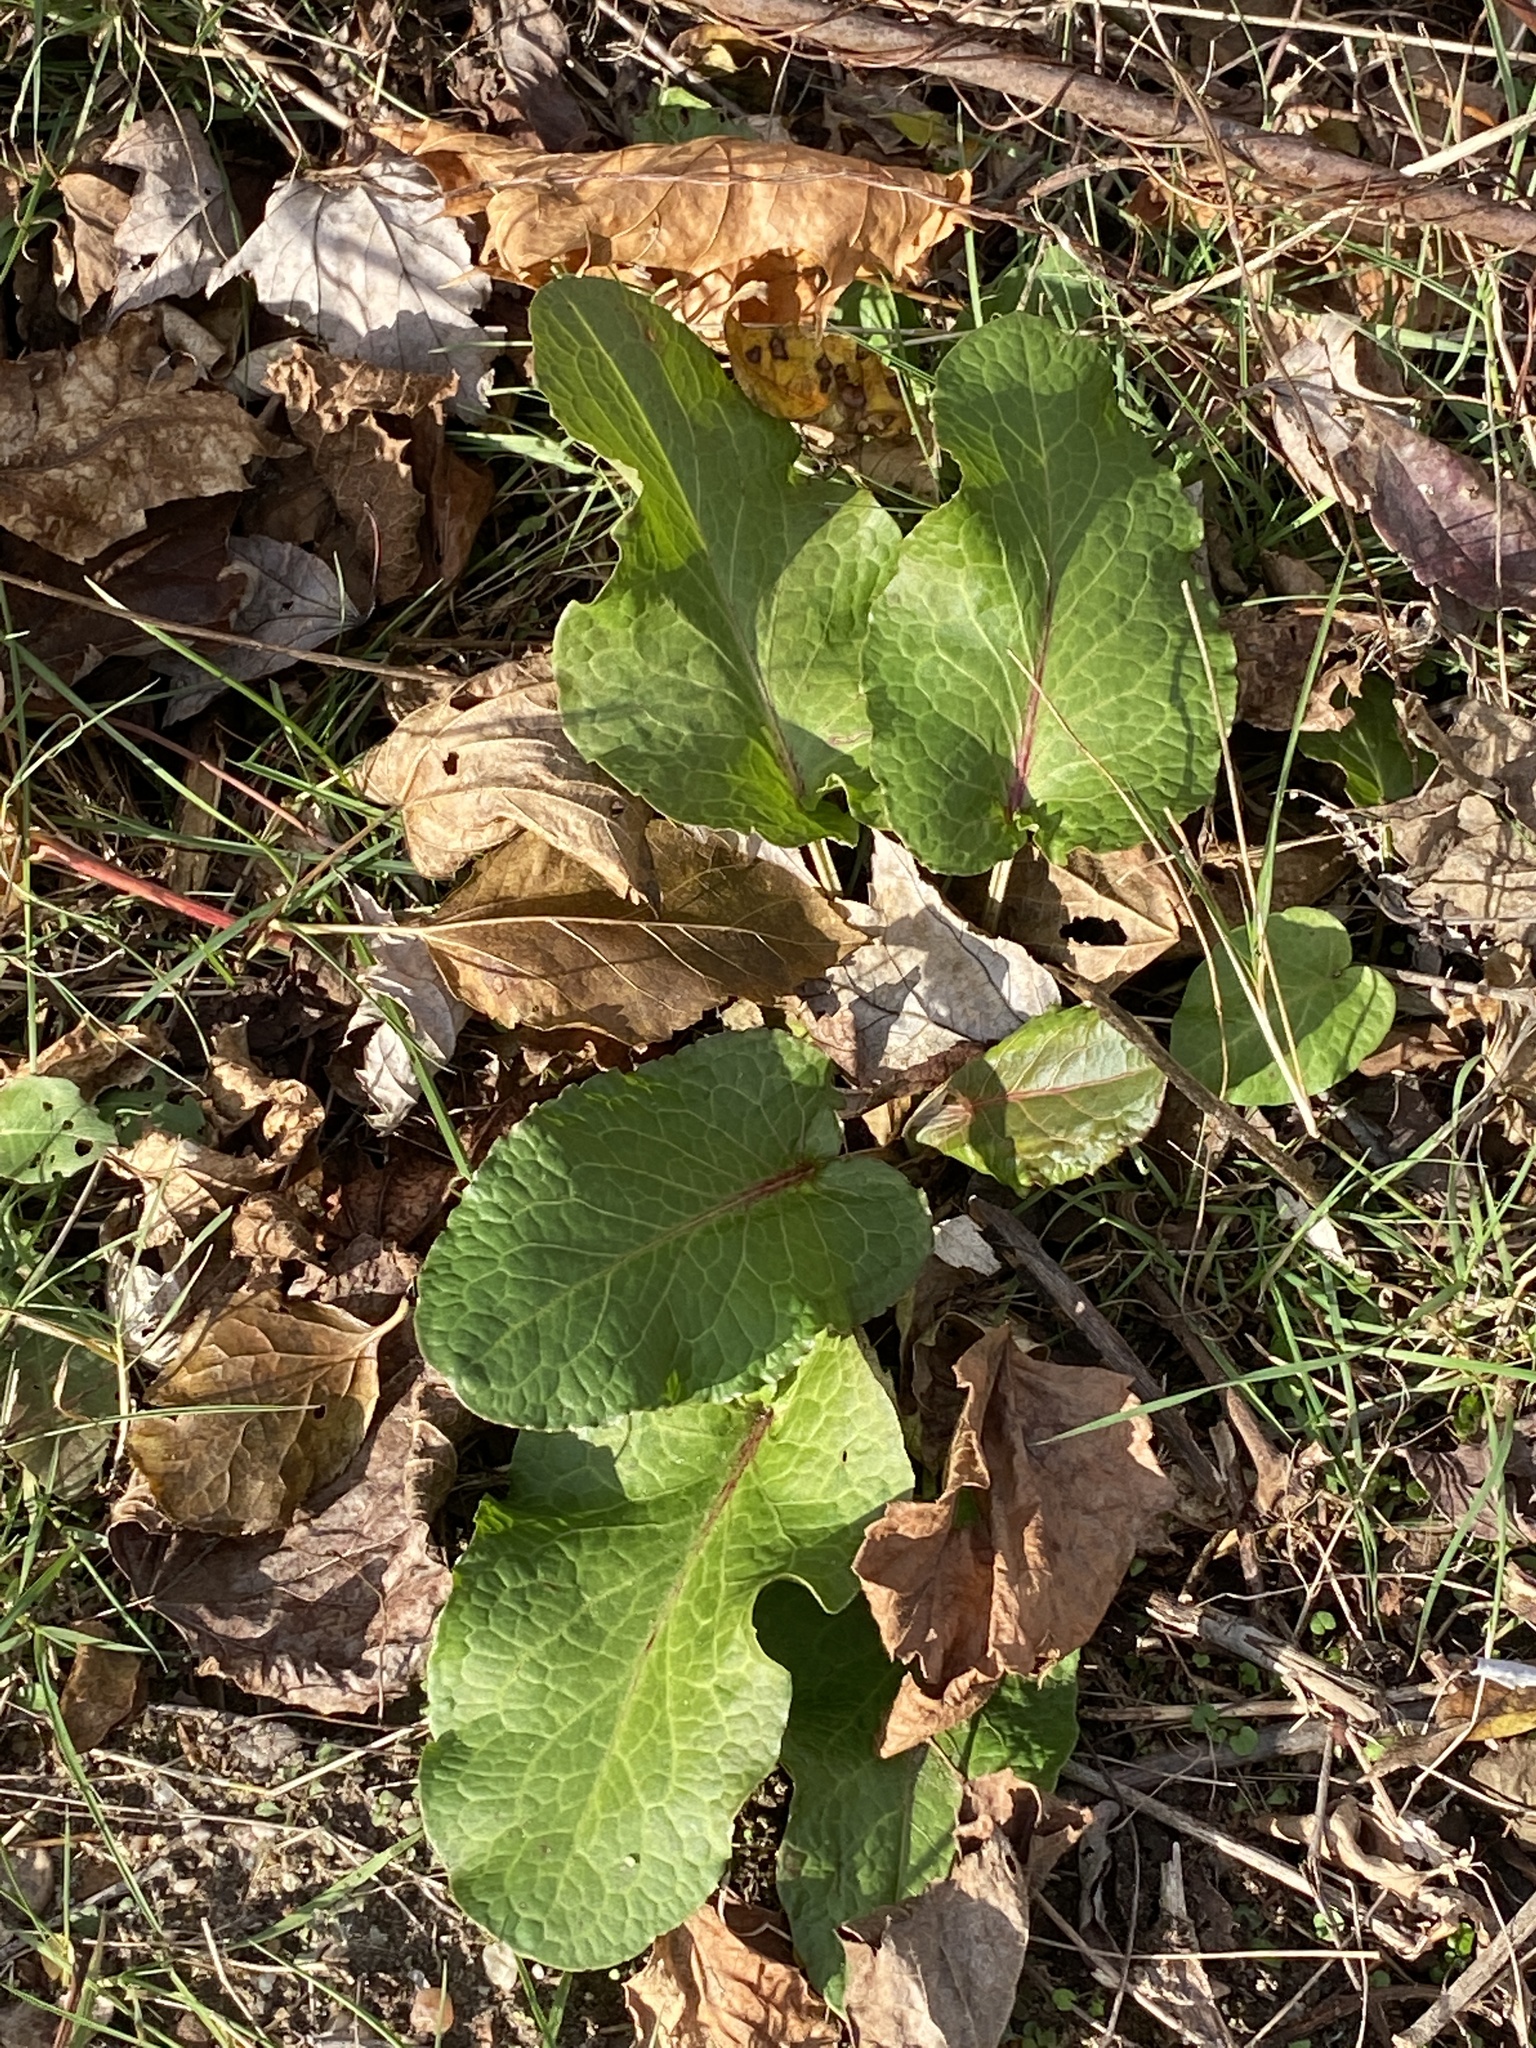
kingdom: Plantae
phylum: Tracheophyta
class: Magnoliopsida
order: Caryophyllales
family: Polygonaceae
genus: Rumex
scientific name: Rumex obtusifolius
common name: Bitter dock
